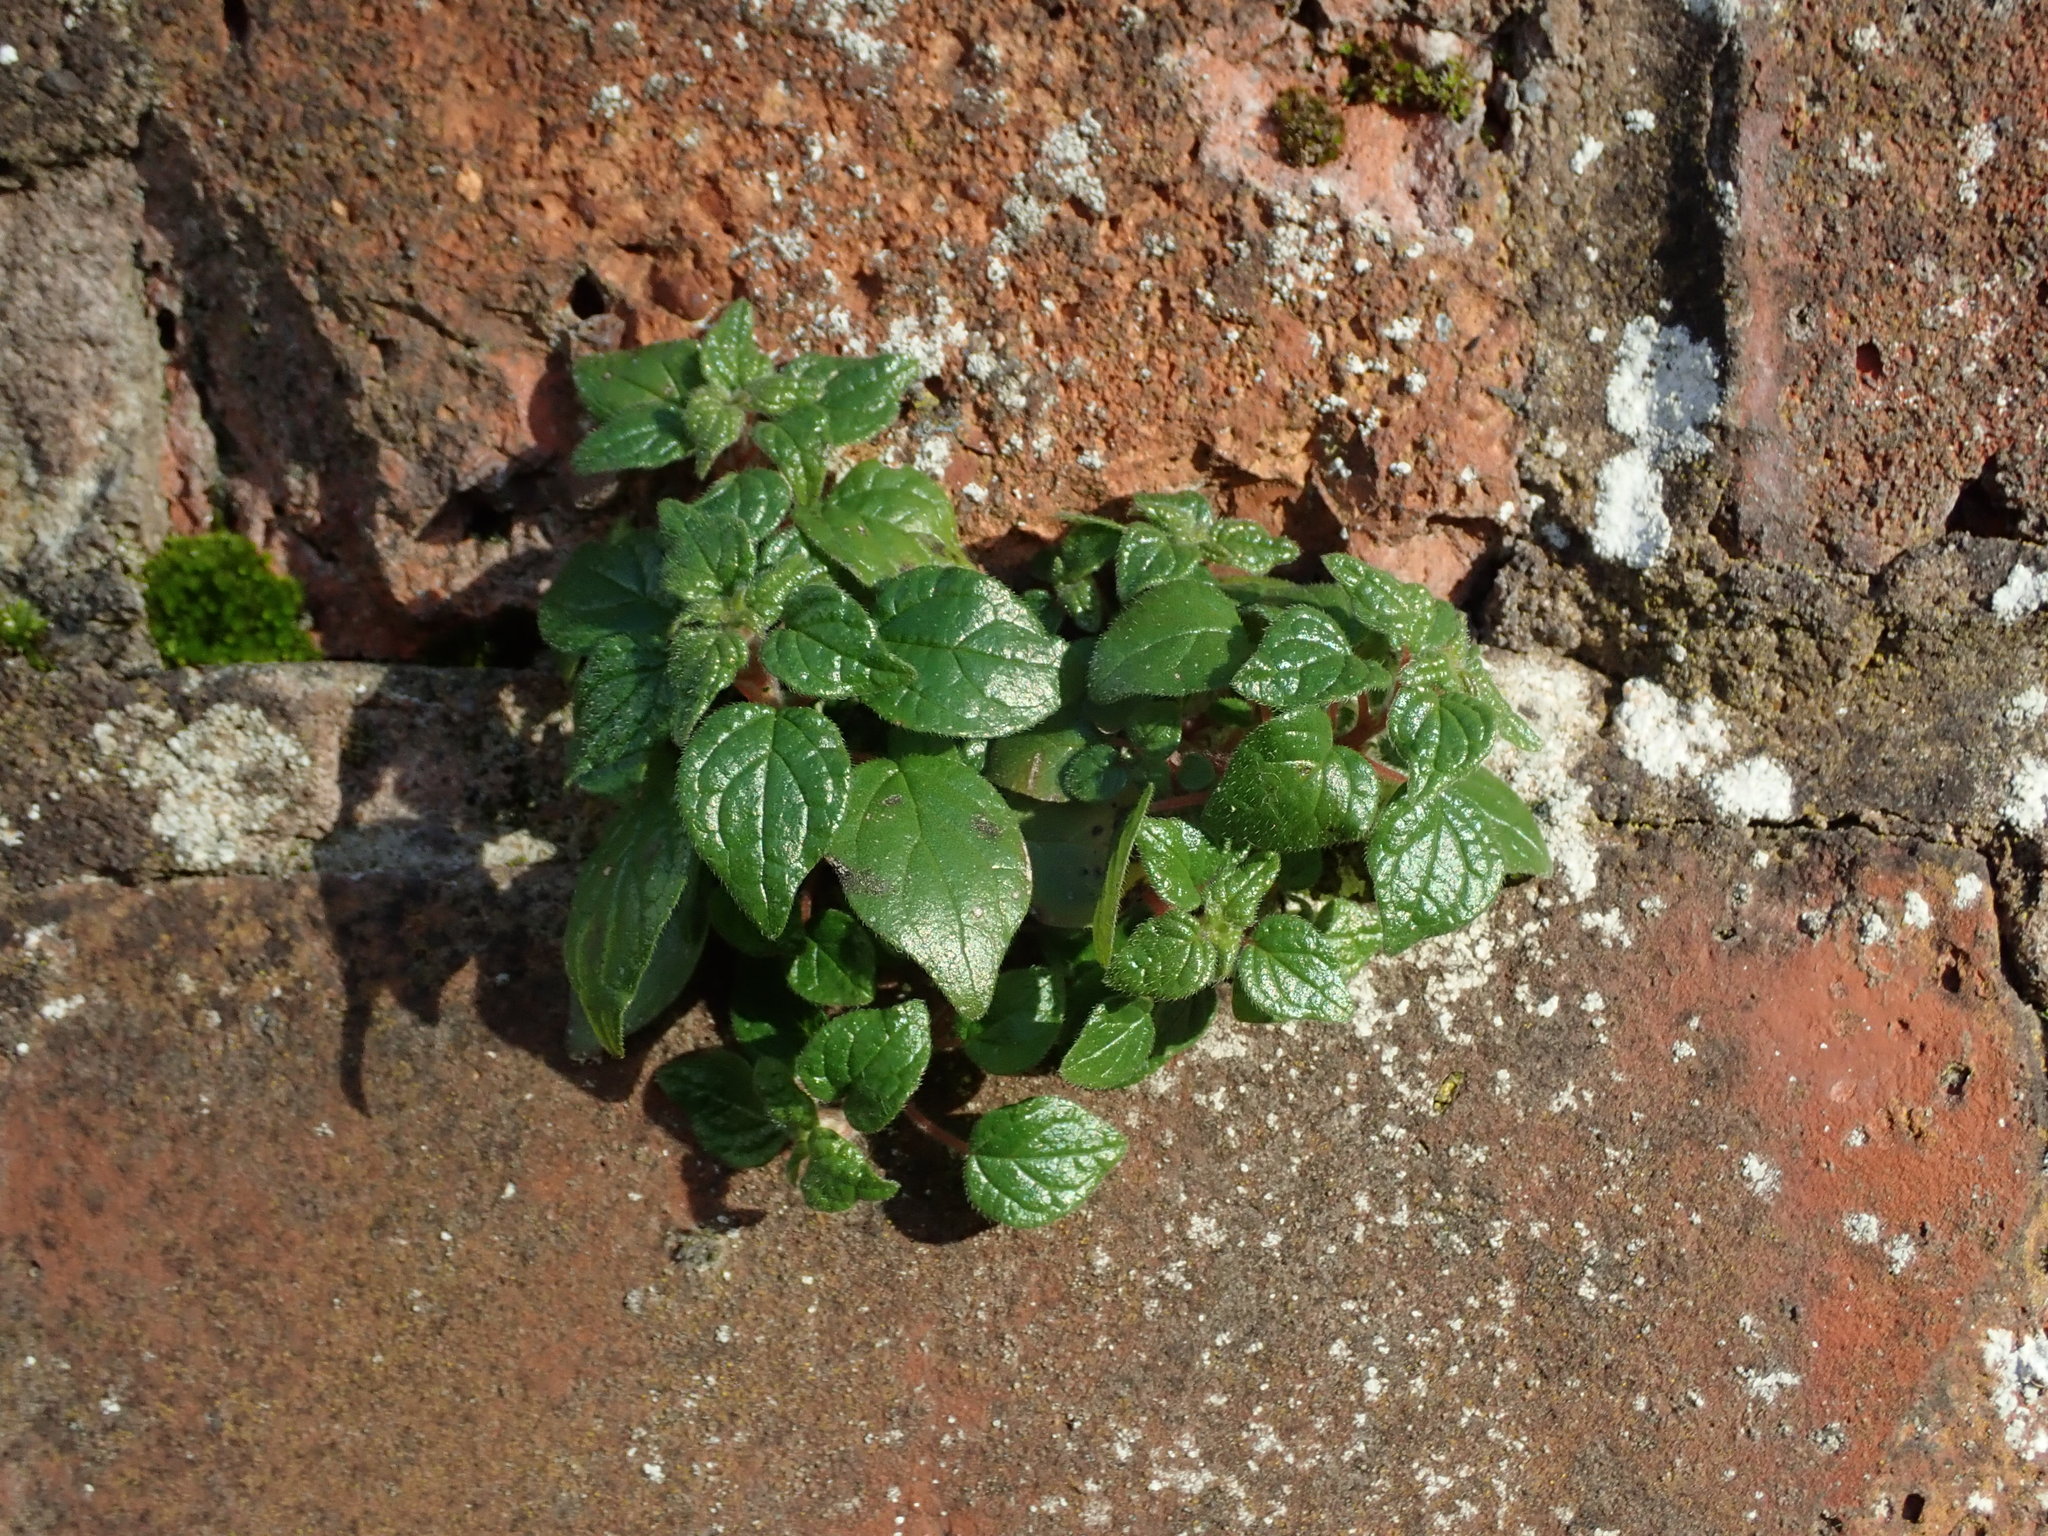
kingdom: Plantae
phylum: Tracheophyta
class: Magnoliopsida
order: Rosales
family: Urticaceae
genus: Parietaria
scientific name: Parietaria judaica
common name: Pellitory-of-the-wall
